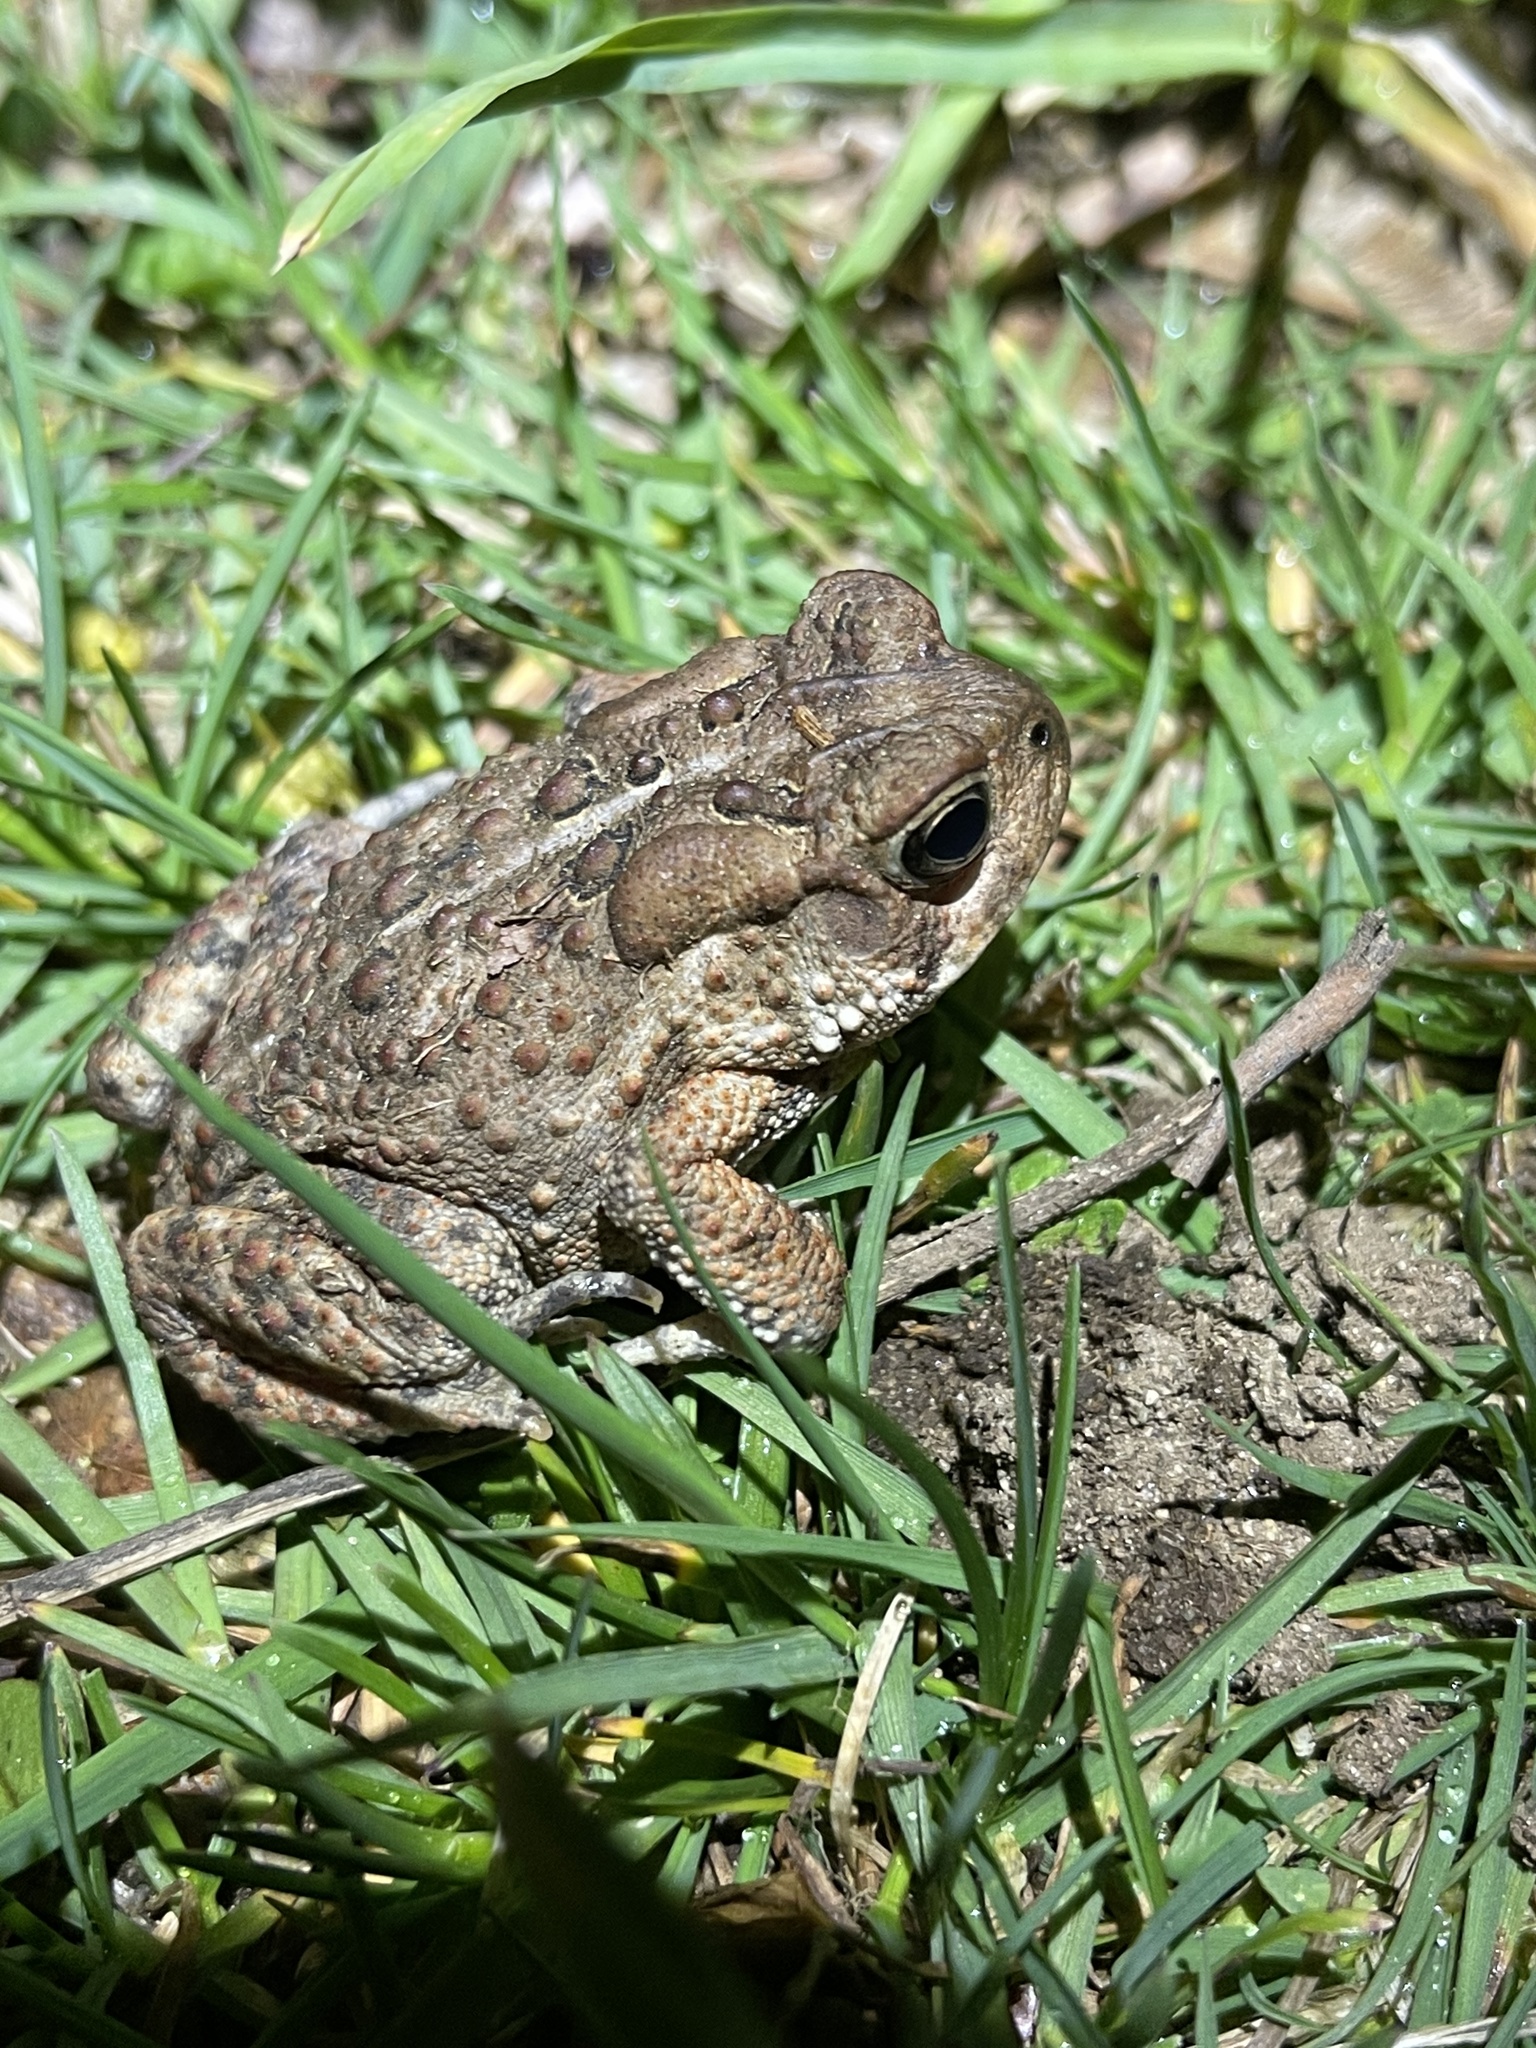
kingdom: Animalia
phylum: Chordata
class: Amphibia
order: Anura
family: Bufonidae
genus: Anaxyrus
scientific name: Anaxyrus americanus
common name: American toad
